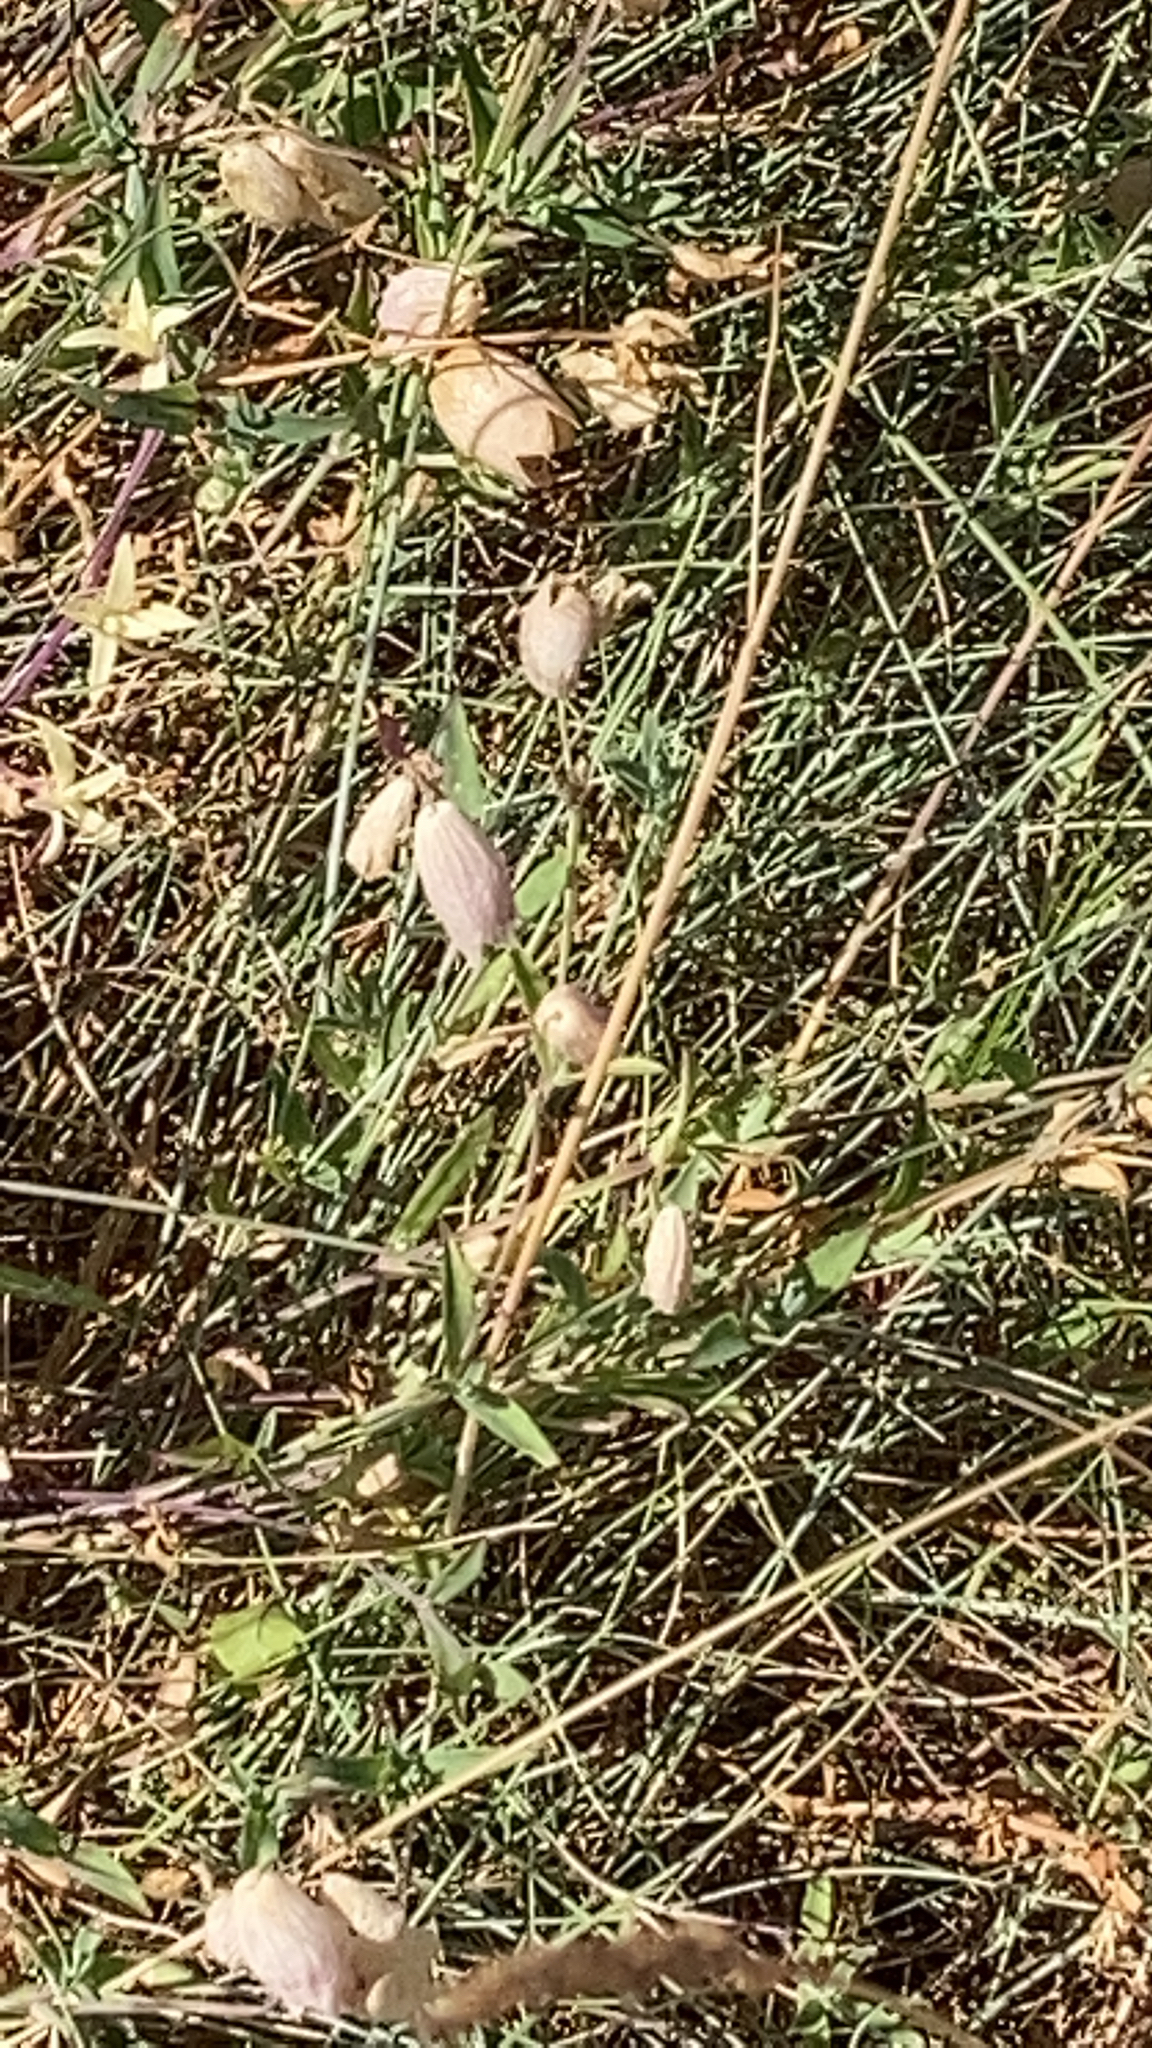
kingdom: Plantae
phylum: Tracheophyta
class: Magnoliopsida
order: Caryophyllales
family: Caryophyllaceae
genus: Silene
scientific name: Silene vulgaris
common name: Bladder campion
